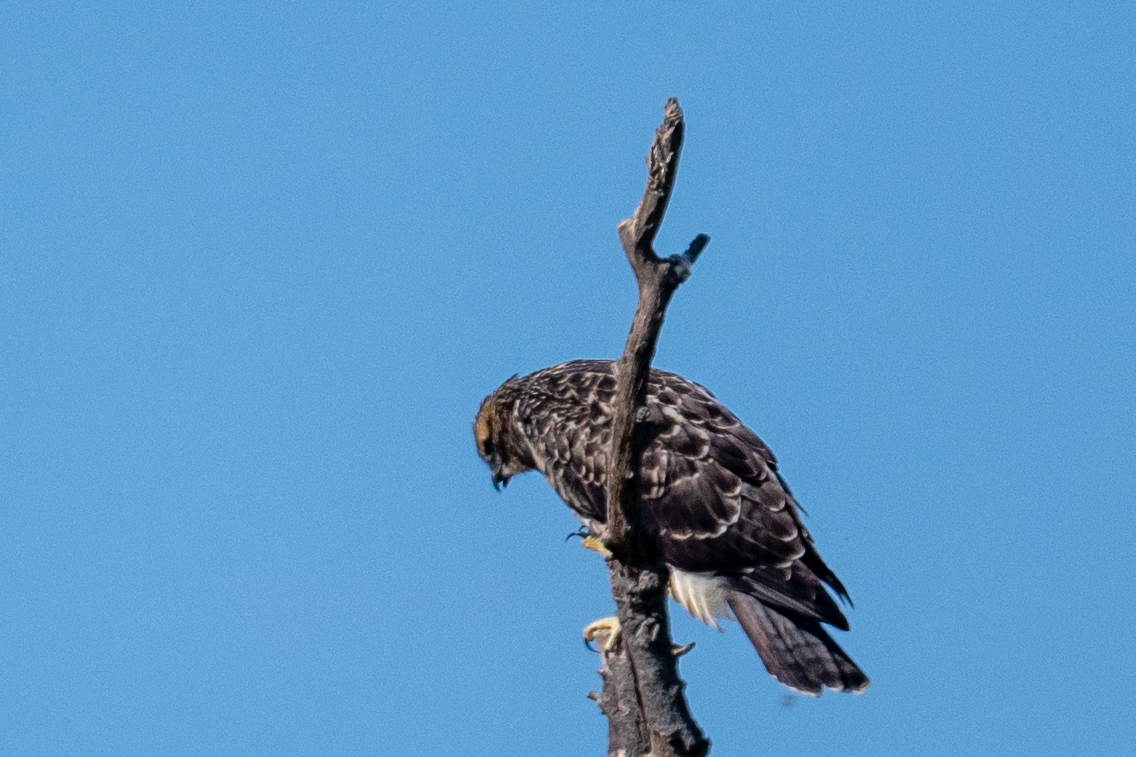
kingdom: Animalia
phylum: Chordata
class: Aves
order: Accipitriformes
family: Accipitridae
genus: Buteo
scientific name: Buteo swainsoni
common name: Swainson's hawk
